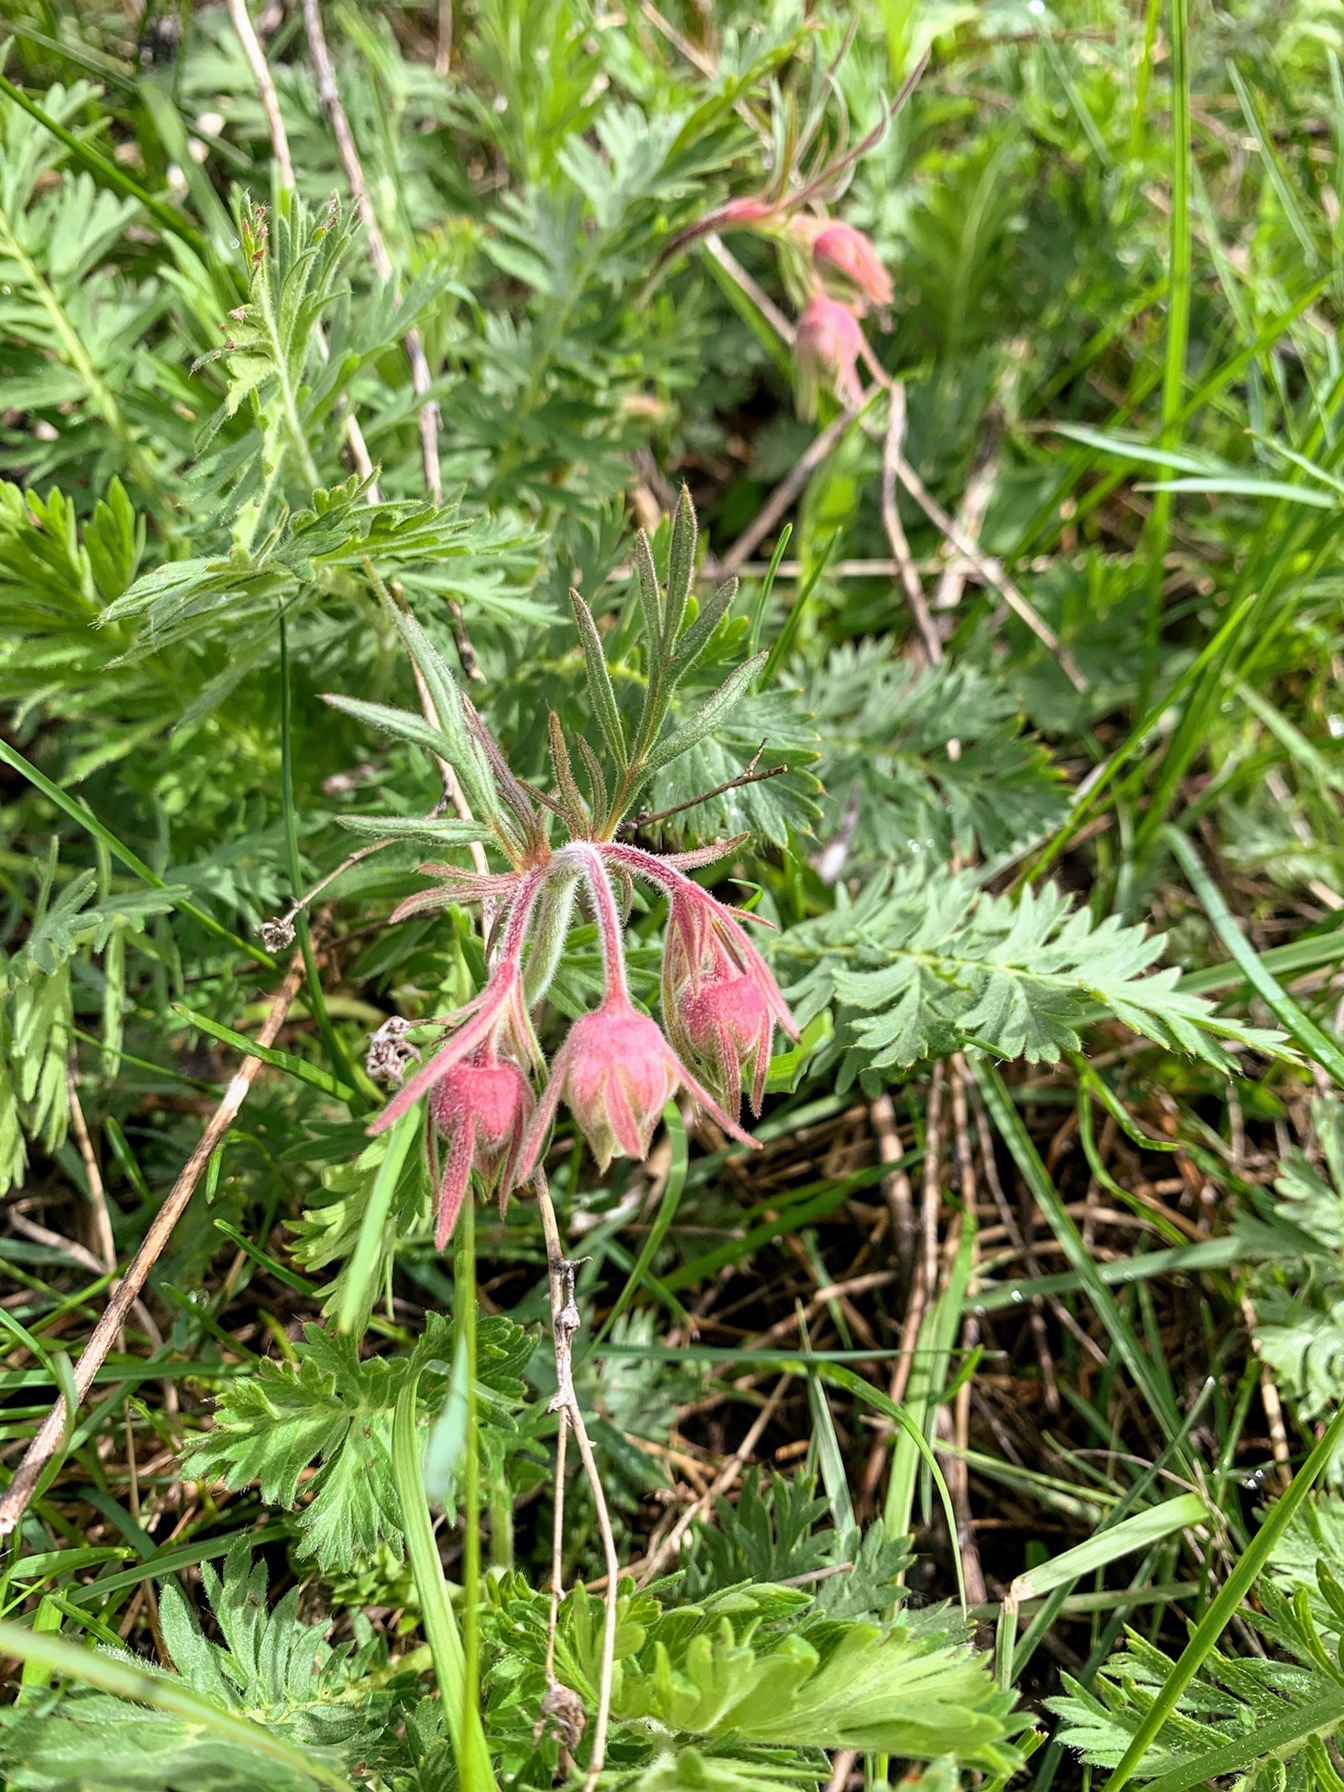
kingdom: Plantae
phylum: Tracheophyta
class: Magnoliopsida
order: Rosales
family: Rosaceae
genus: Geum
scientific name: Geum triflorum
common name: Old man's whiskers
